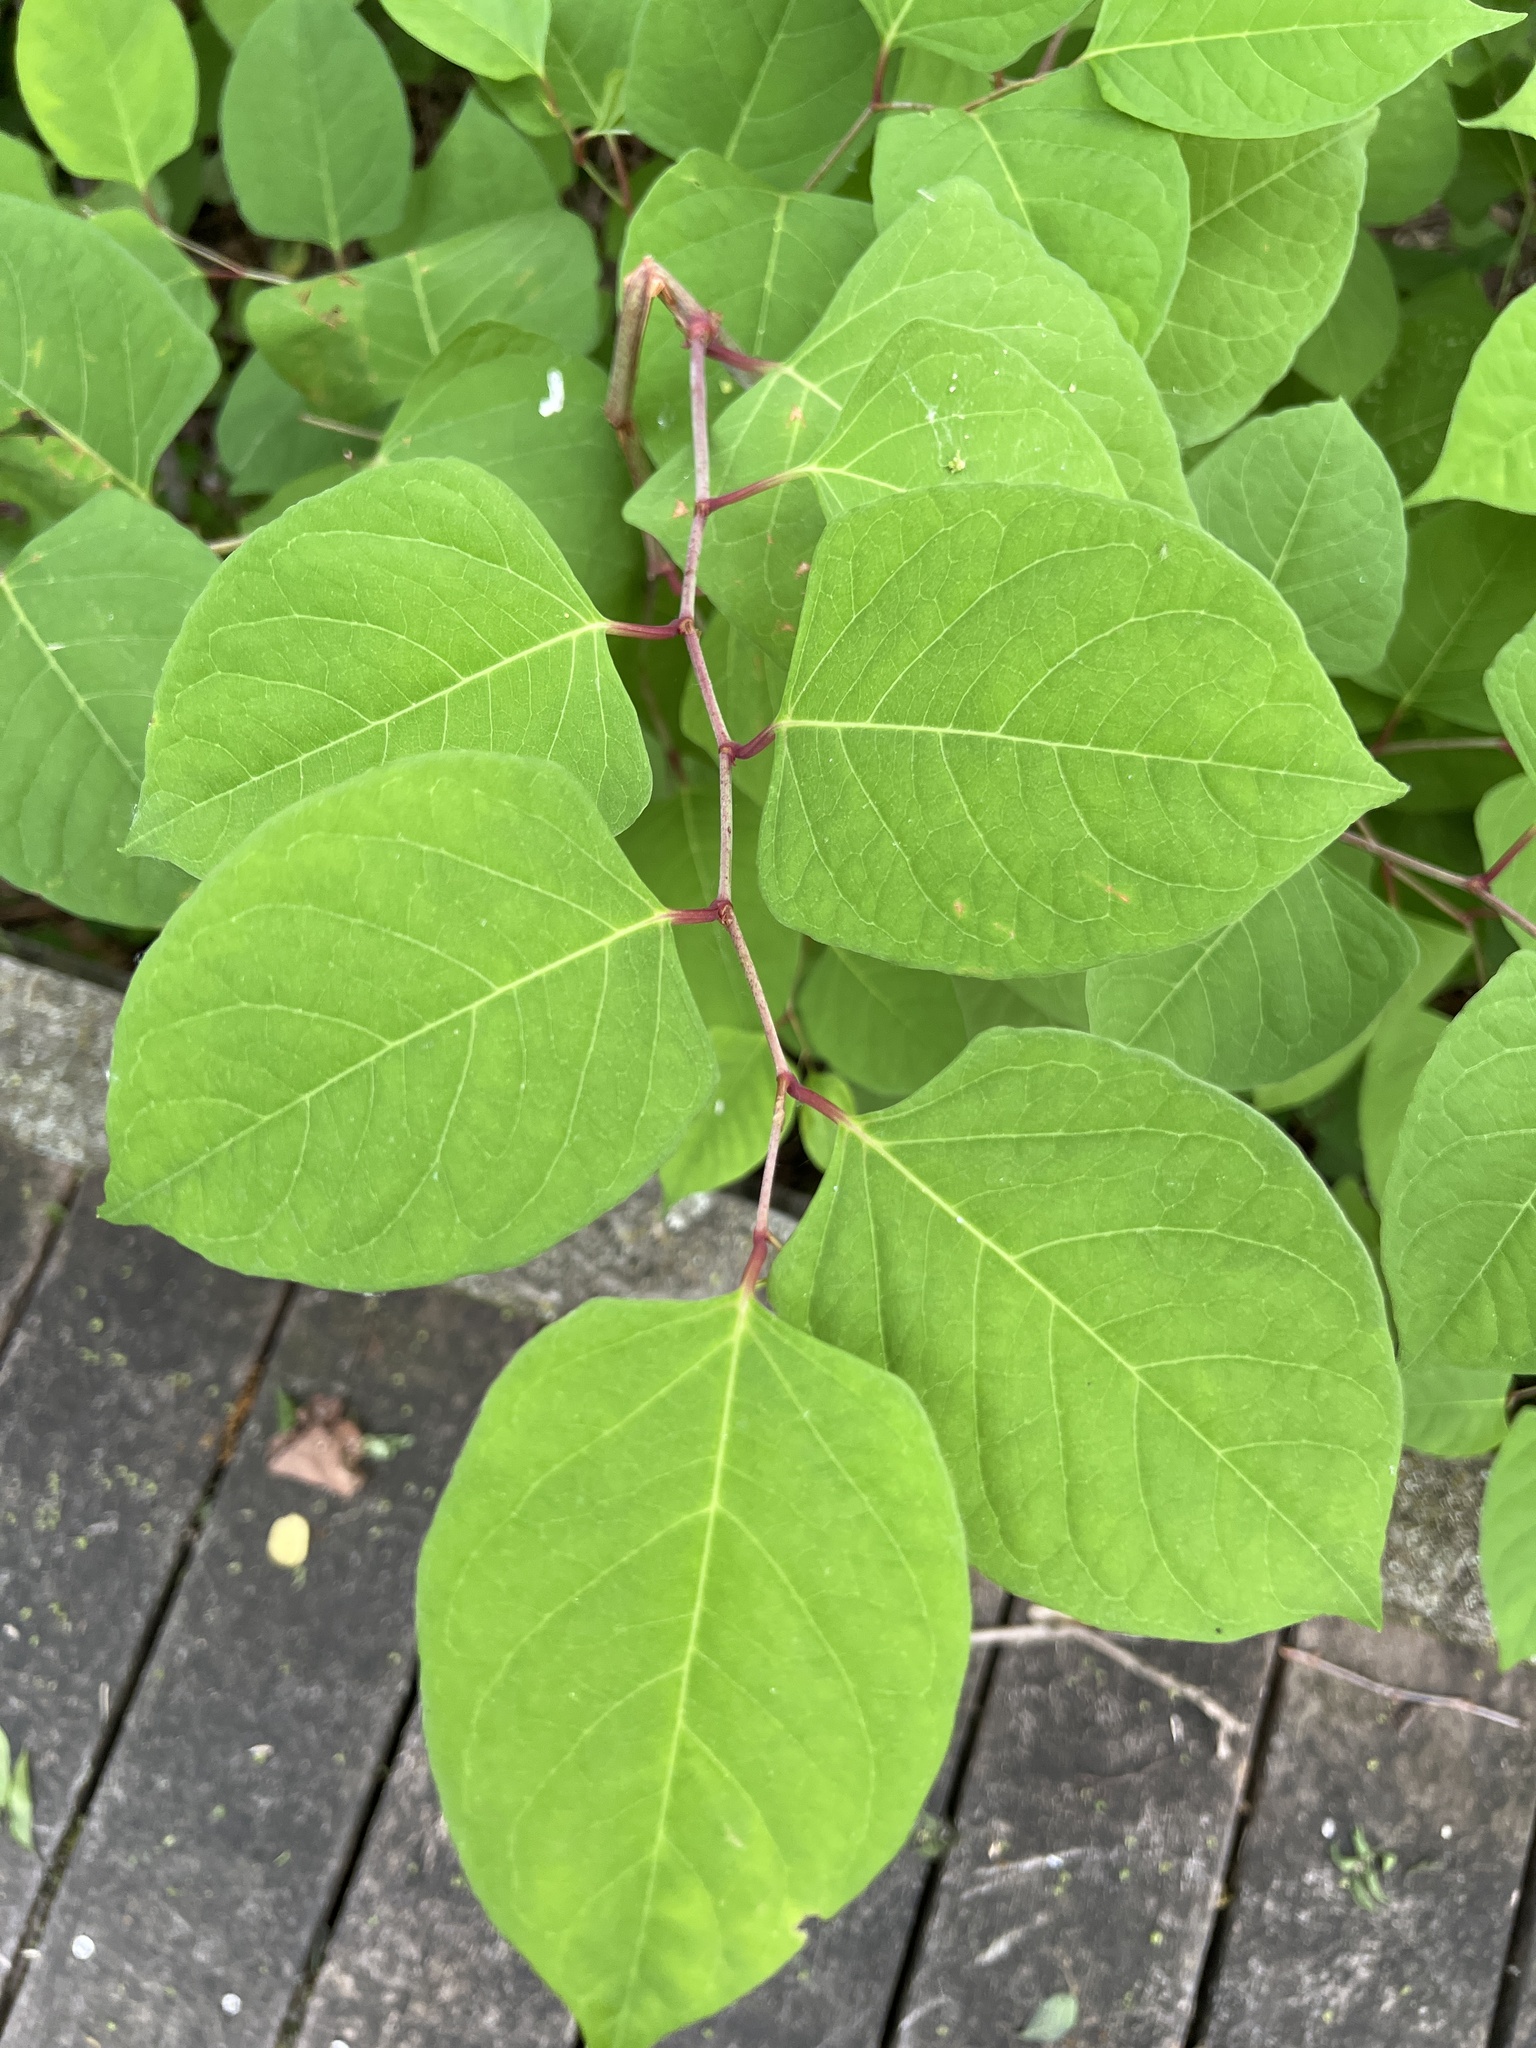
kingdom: Plantae
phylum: Tracheophyta
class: Magnoliopsida
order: Caryophyllales
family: Polygonaceae
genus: Reynoutria
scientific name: Reynoutria japonica
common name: Japanese knotweed
